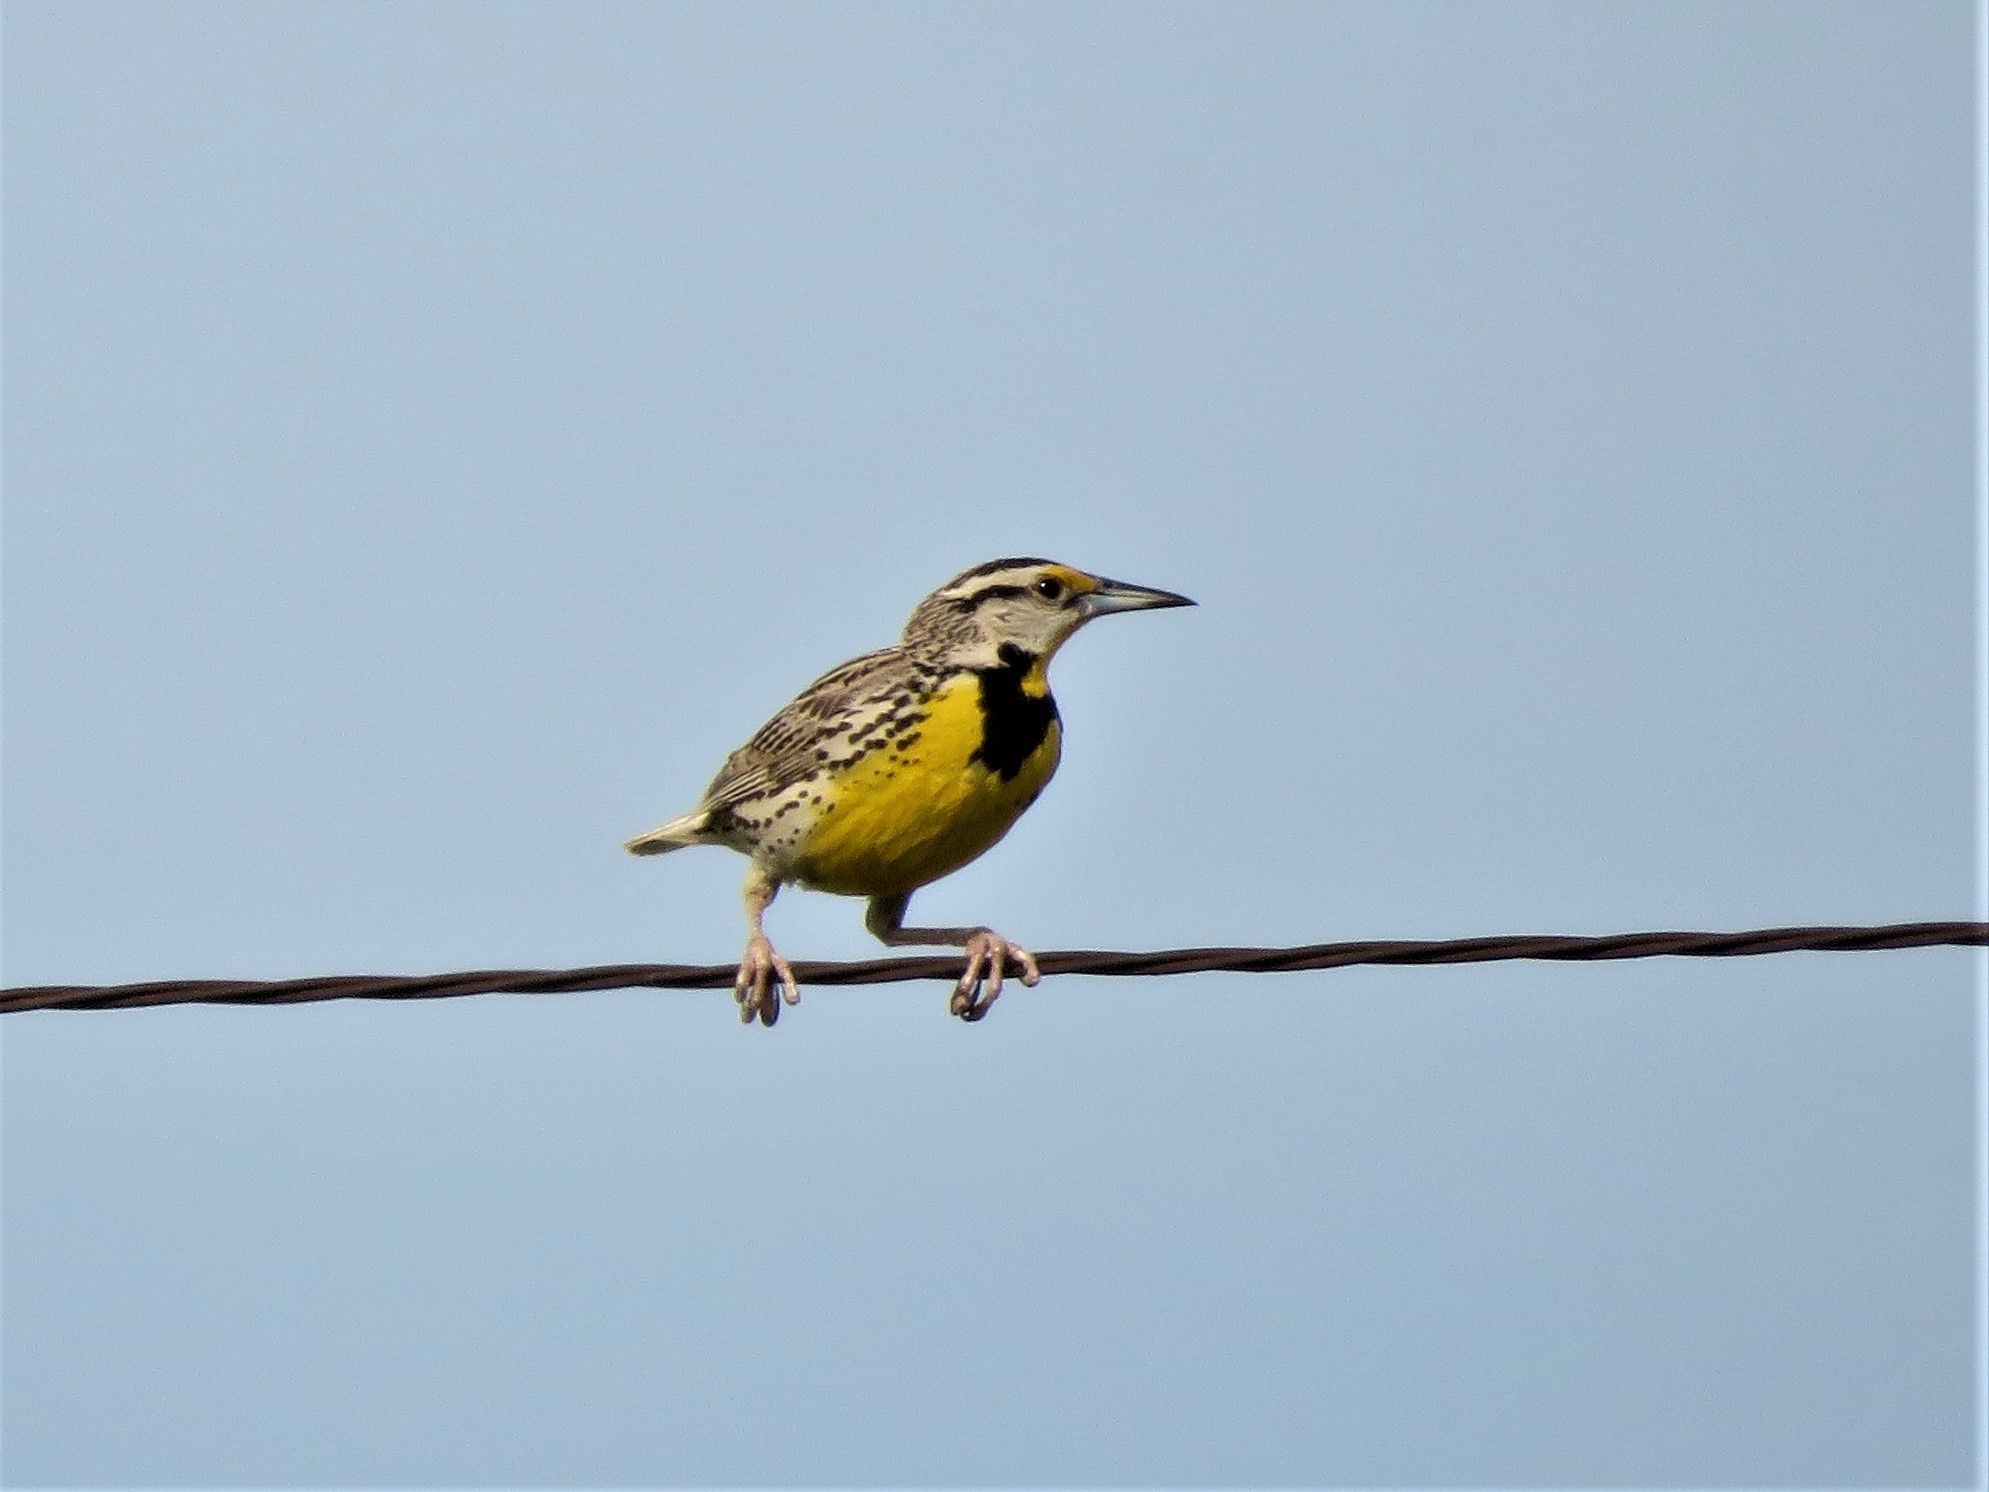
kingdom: Animalia
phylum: Chordata
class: Aves
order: Passeriformes
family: Icteridae
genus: Sturnella
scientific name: Sturnella magna
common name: Eastern meadowlark
